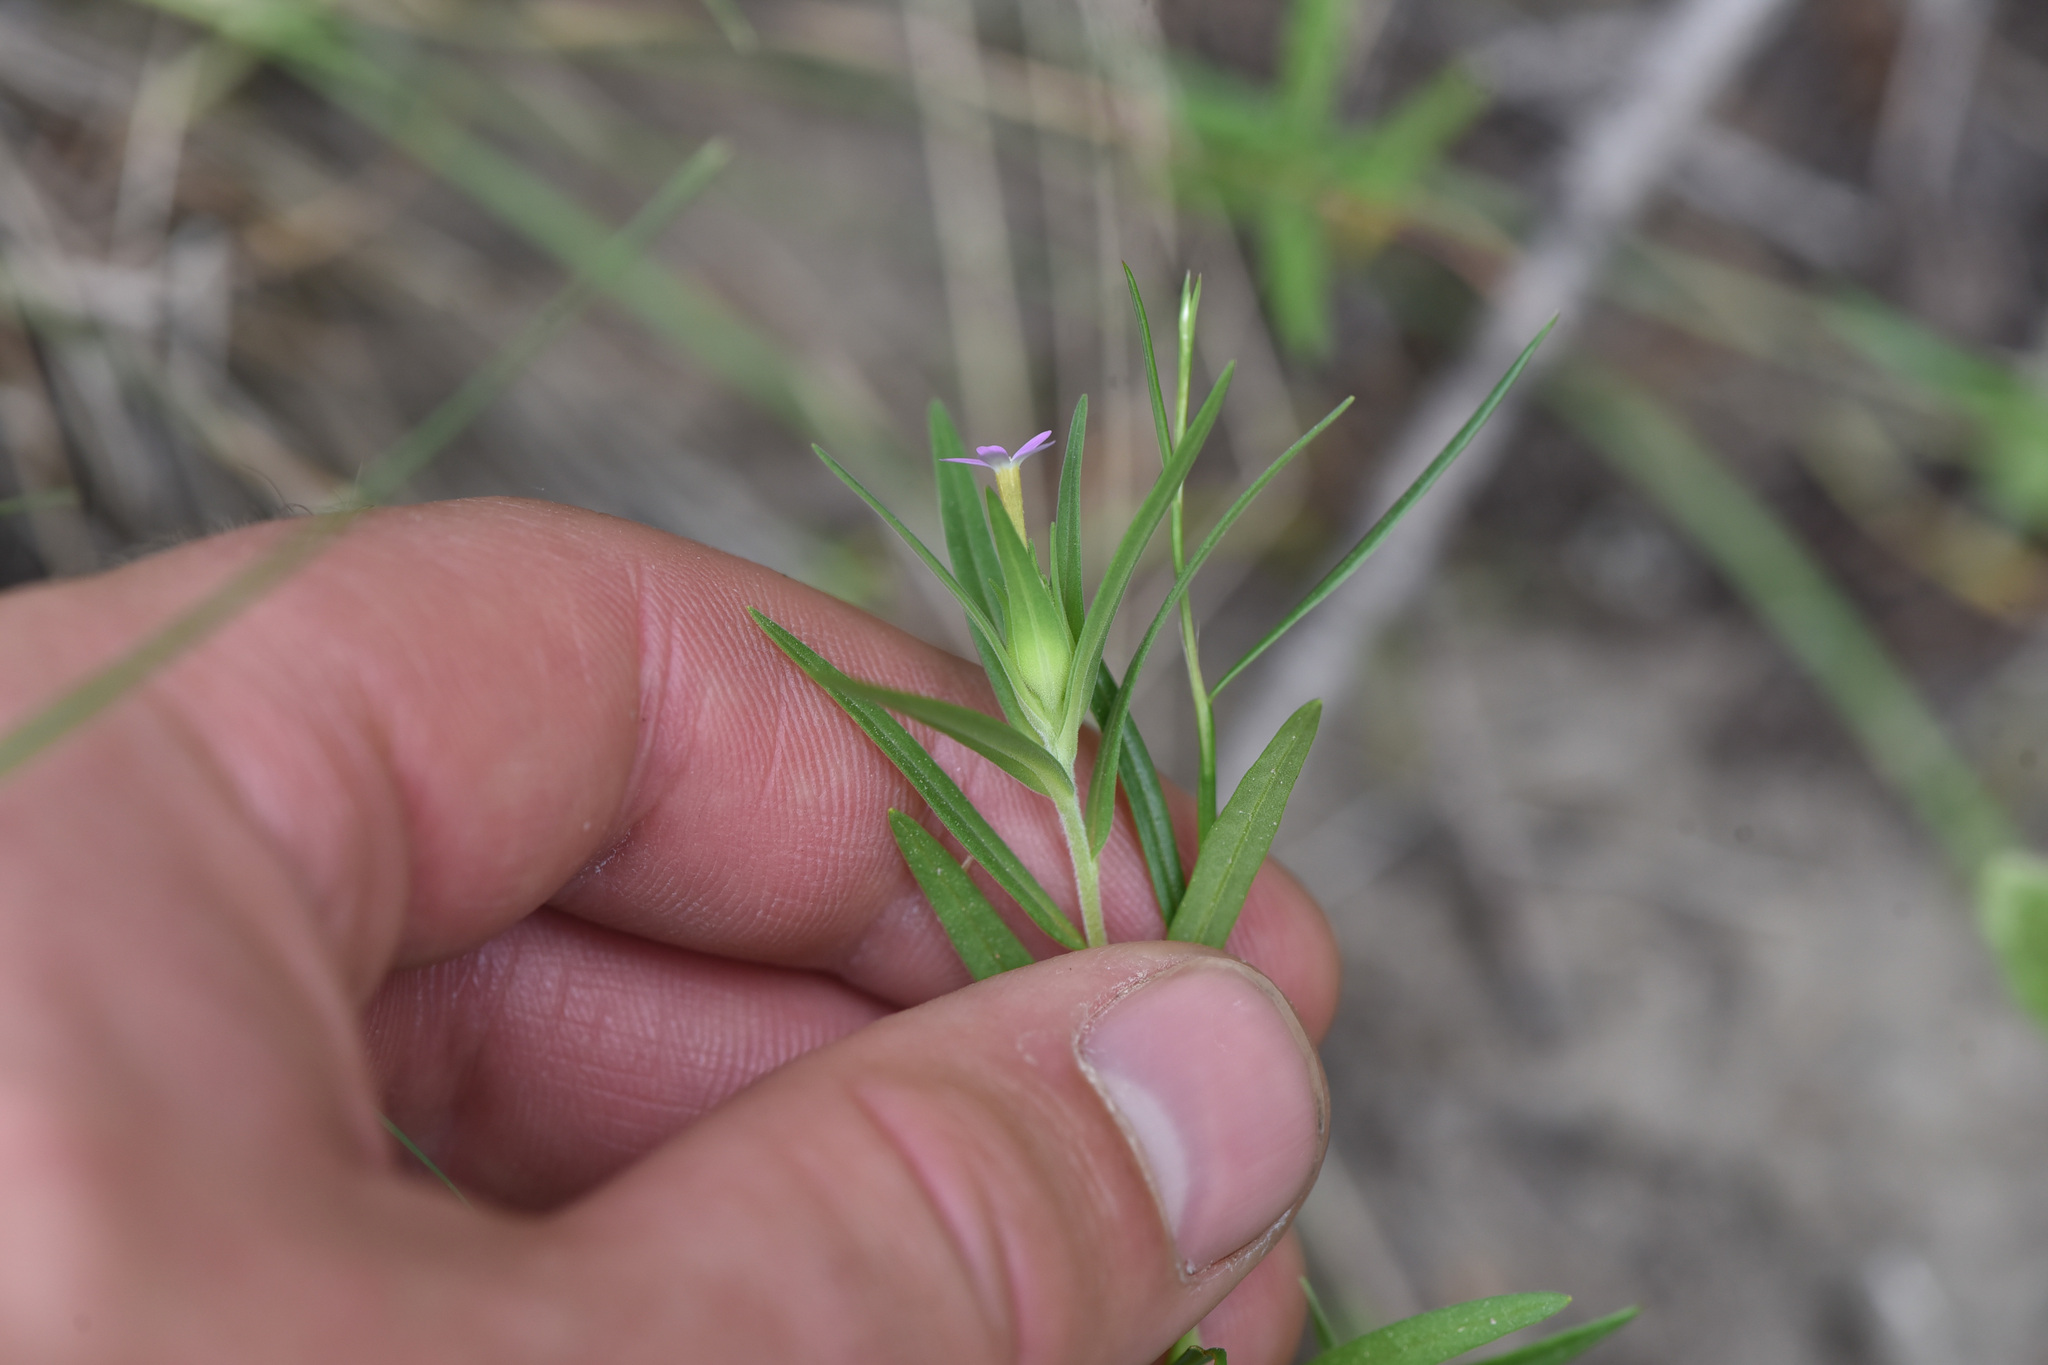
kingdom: Plantae
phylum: Tracheophyta
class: Magnoliopsida
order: Ericales
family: Polemoniaceae
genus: Collomia
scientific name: Collomia linearis
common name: Tiny trumpet
